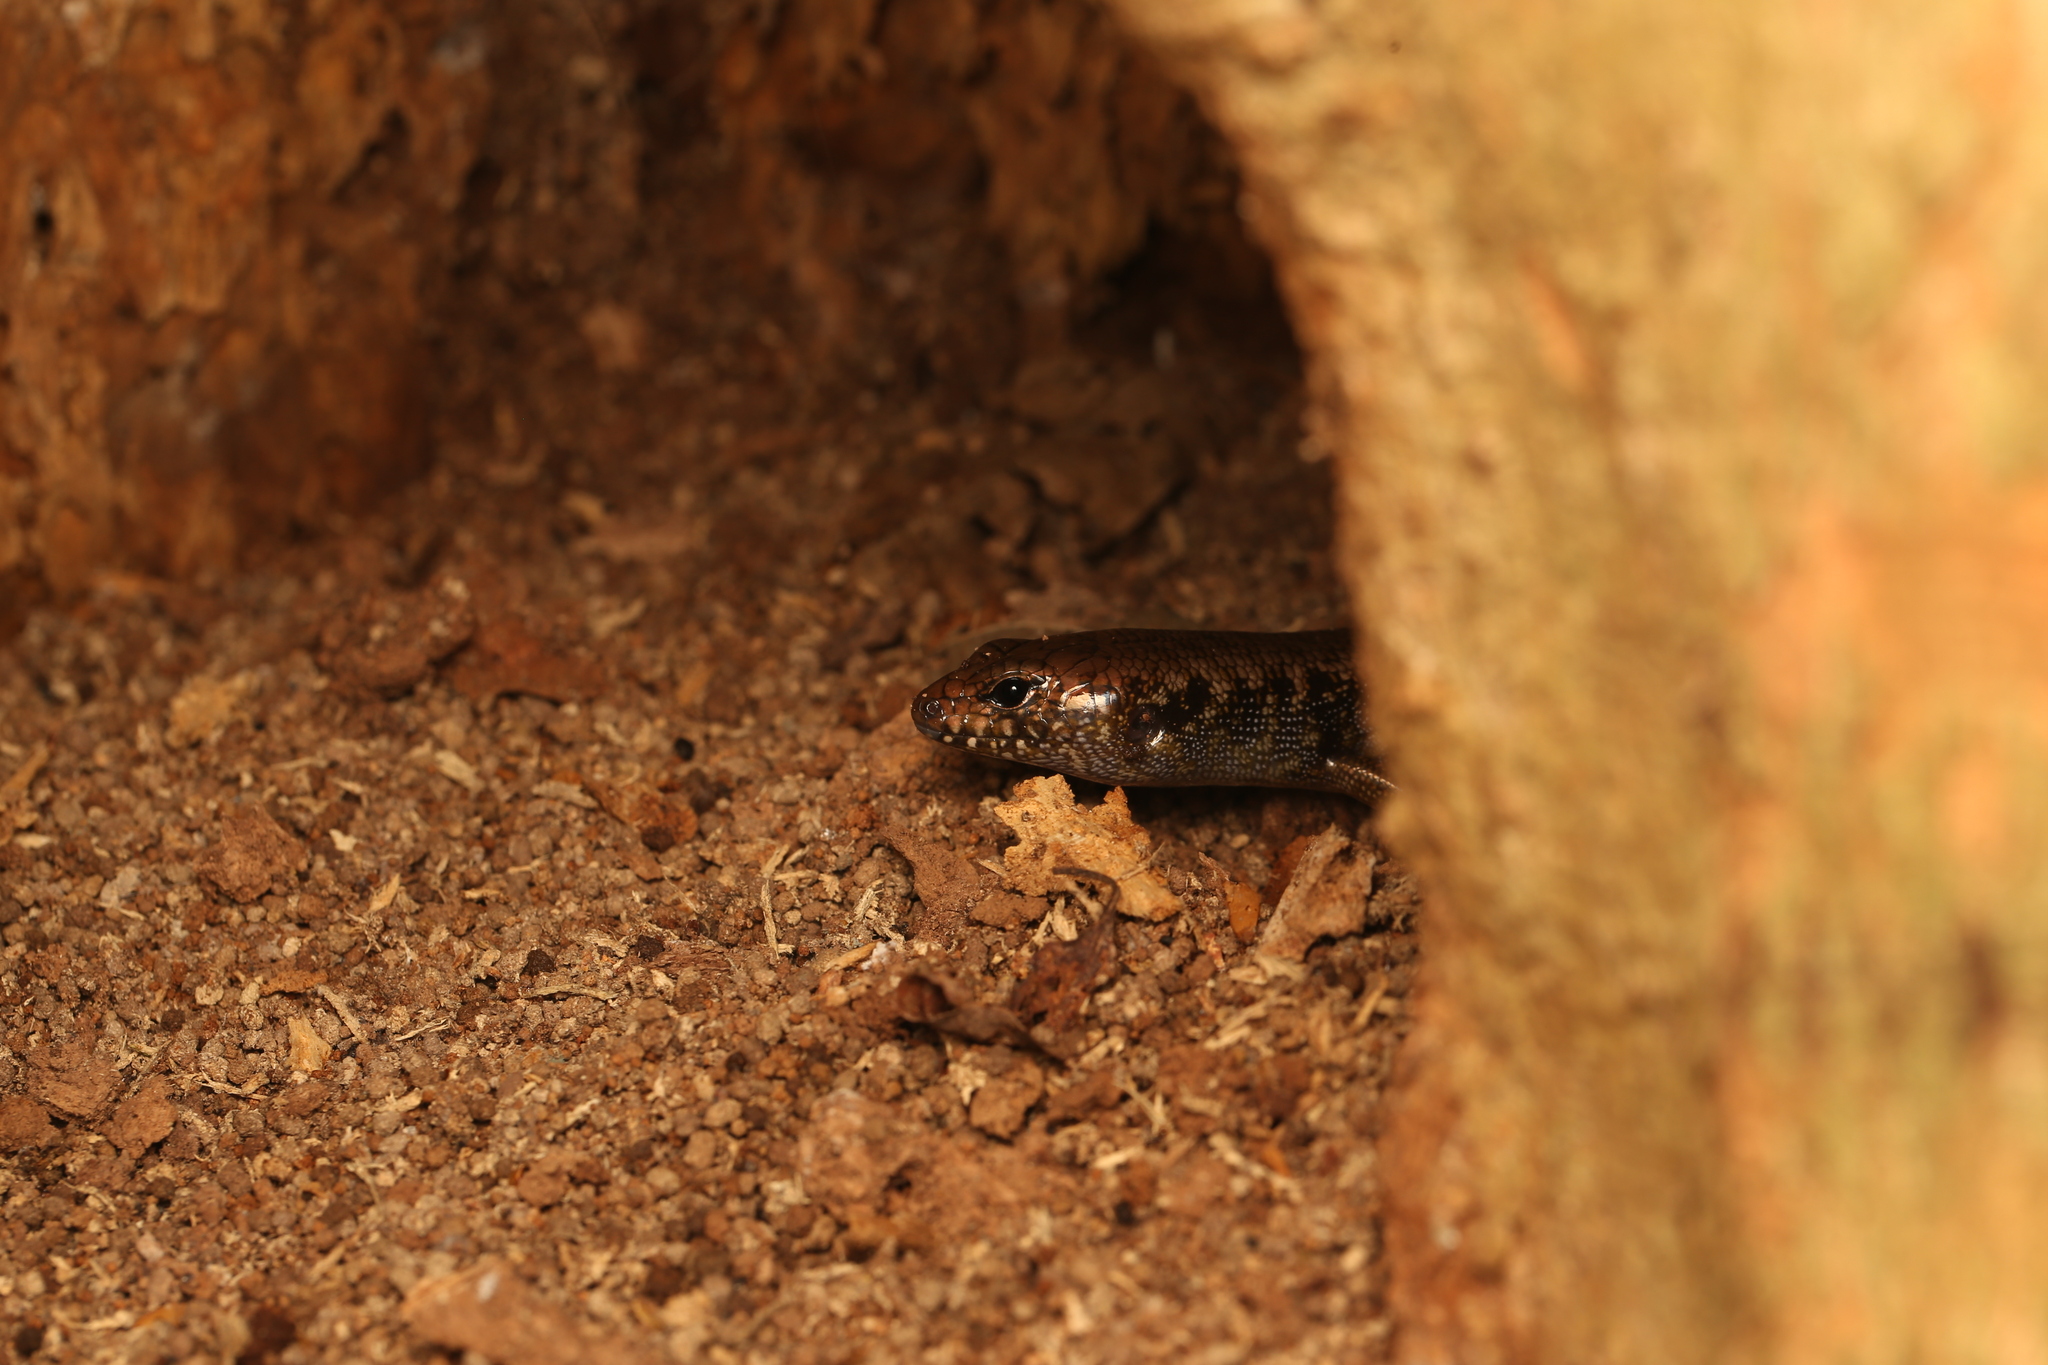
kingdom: Animalia
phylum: Chordata
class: Squamata
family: Scincidae
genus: Silvascincus
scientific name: Silvascincus murrayi
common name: Blue-speckled forest-skink
